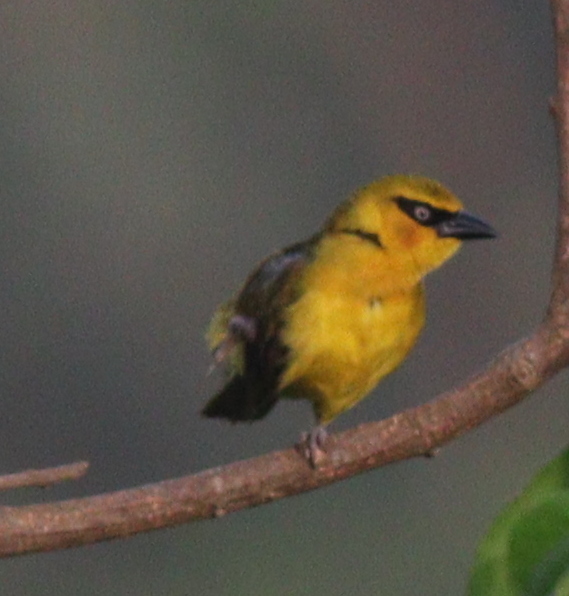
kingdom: Animalia
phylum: Chordata
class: Aves
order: Passeriformes
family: Ploceidae
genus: Ploceus
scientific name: Ploceus brachypterus
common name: Olive-naped weaver
